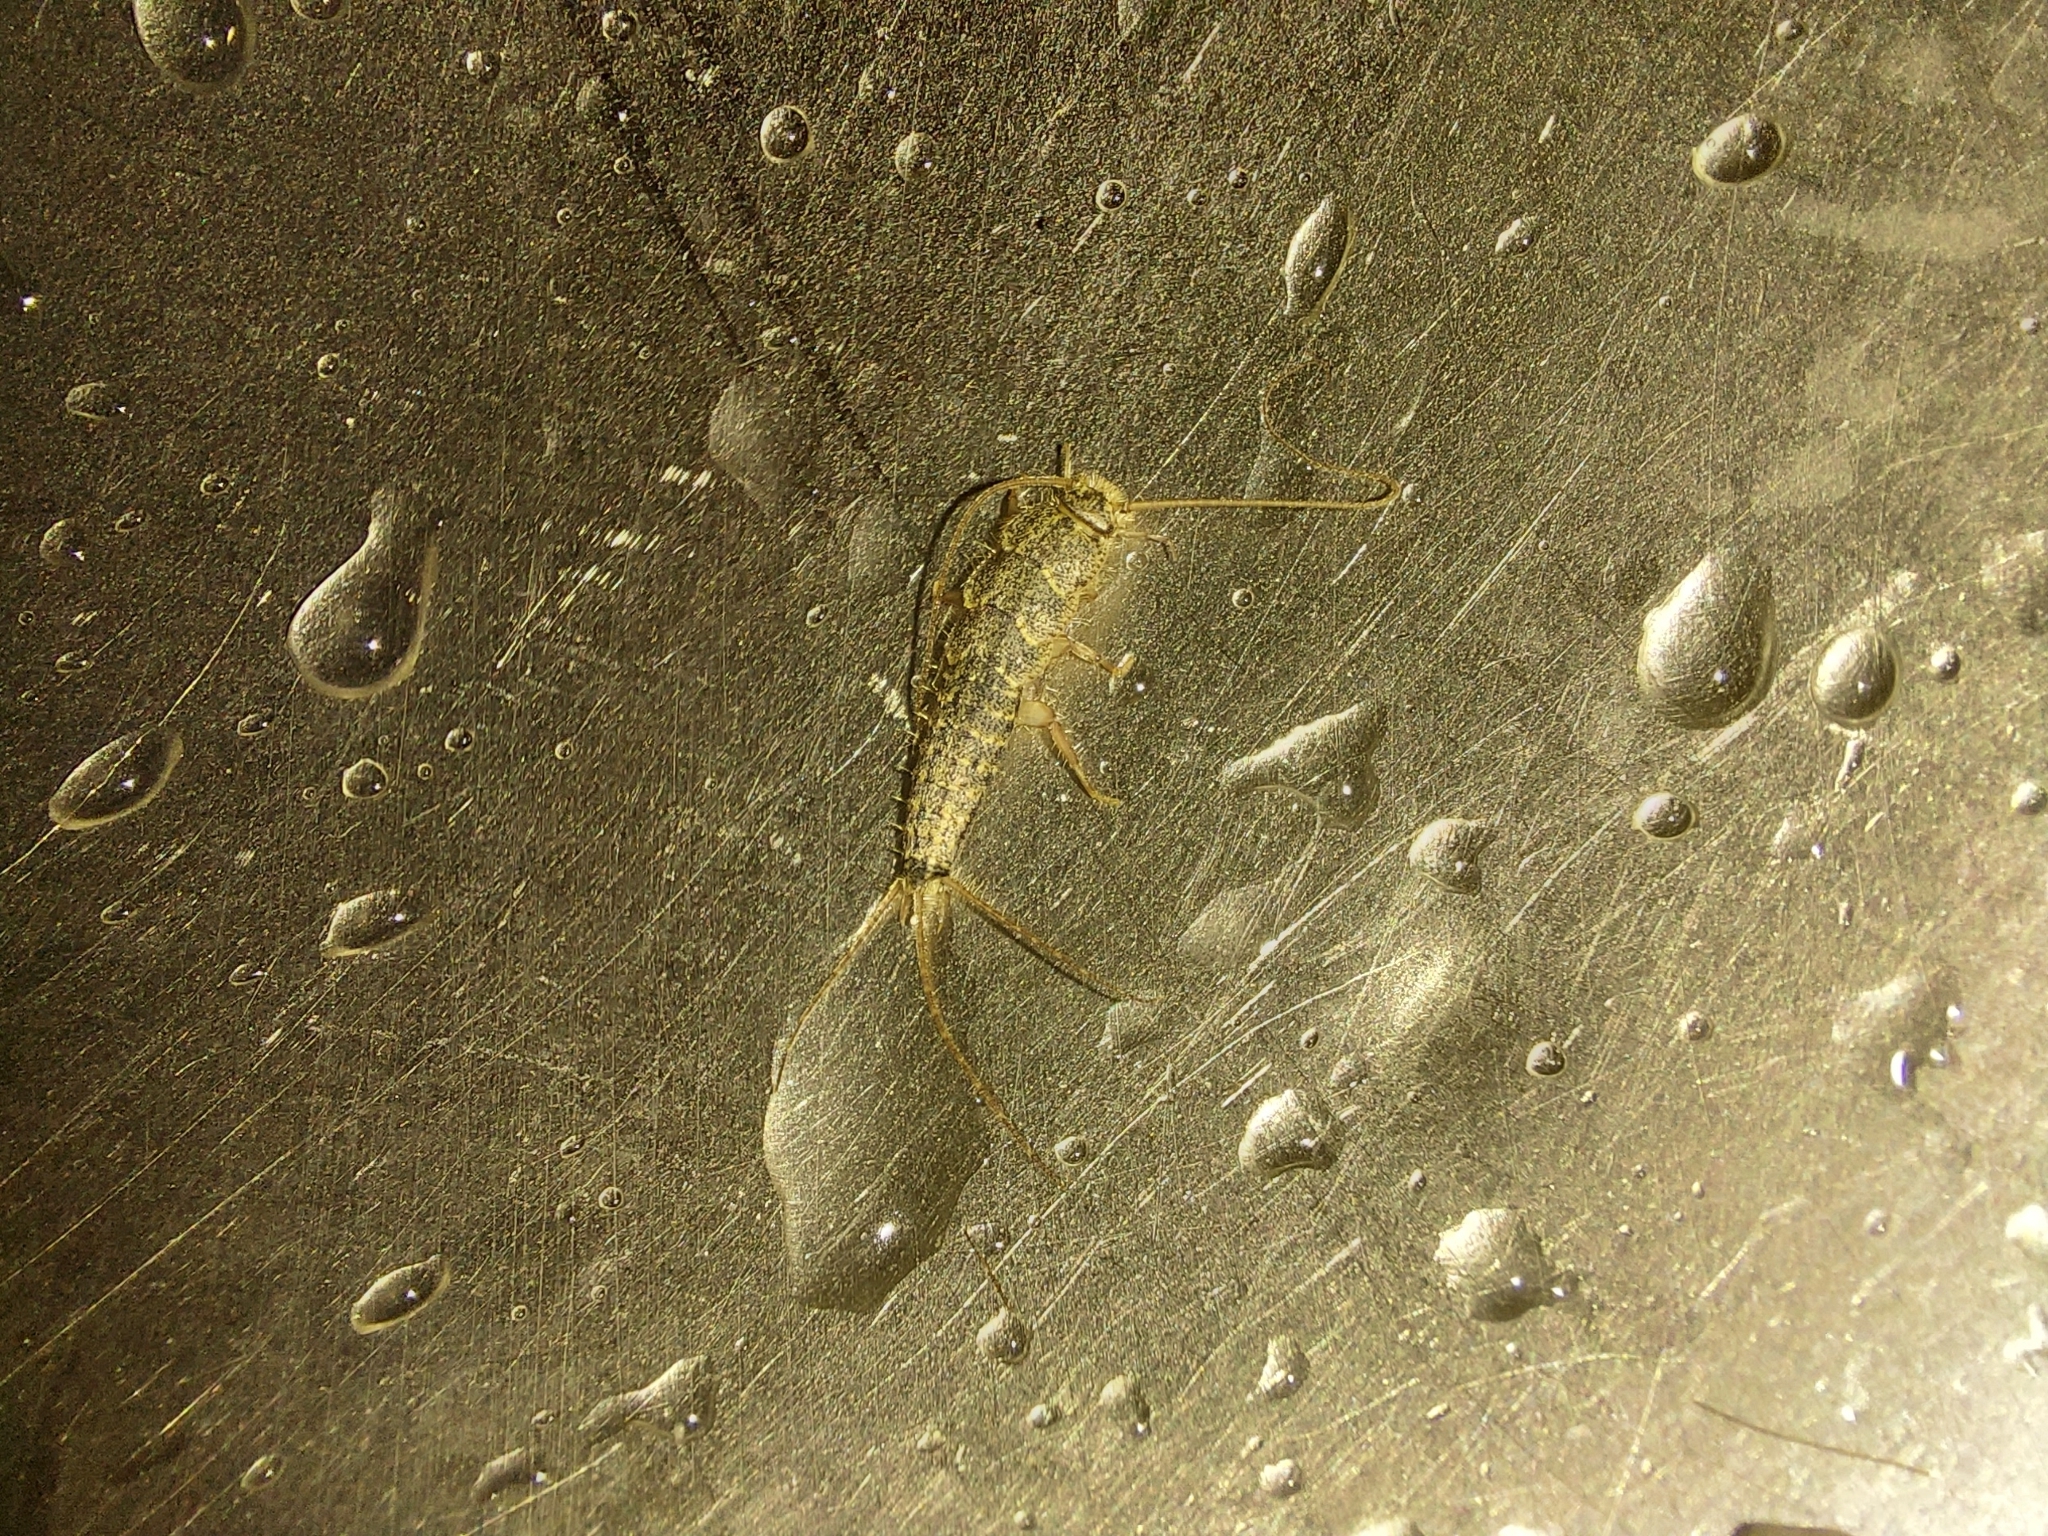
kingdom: Animalia
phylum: Arthropoda
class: Insecta
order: Zygentoma
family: Lepismatidae
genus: Ctenolepisma
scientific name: Ctenolepisma lineata
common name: Four-lined silverfish
